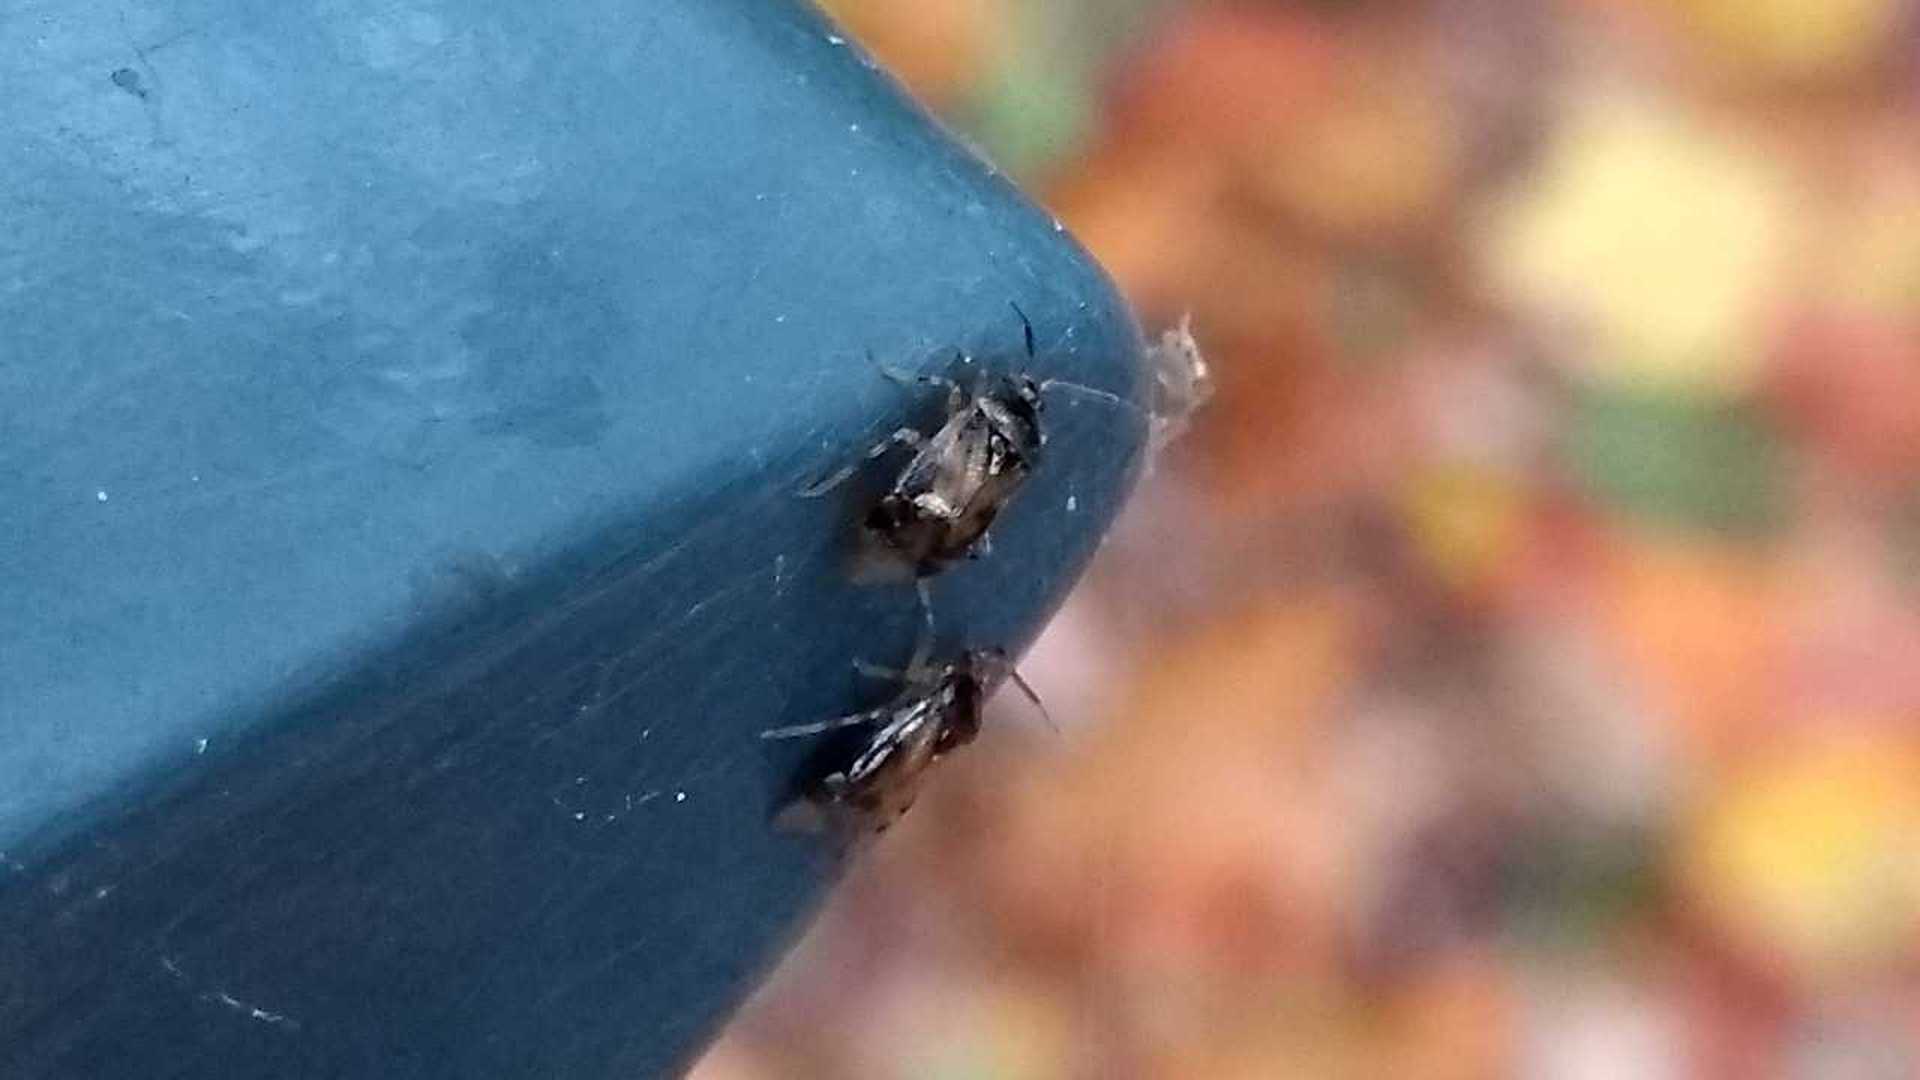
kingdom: Animalia
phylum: Arthropoda
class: Insecta
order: Hemiptera
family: Miridae
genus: Deraeocoris
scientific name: Deraeocoris lutescens
